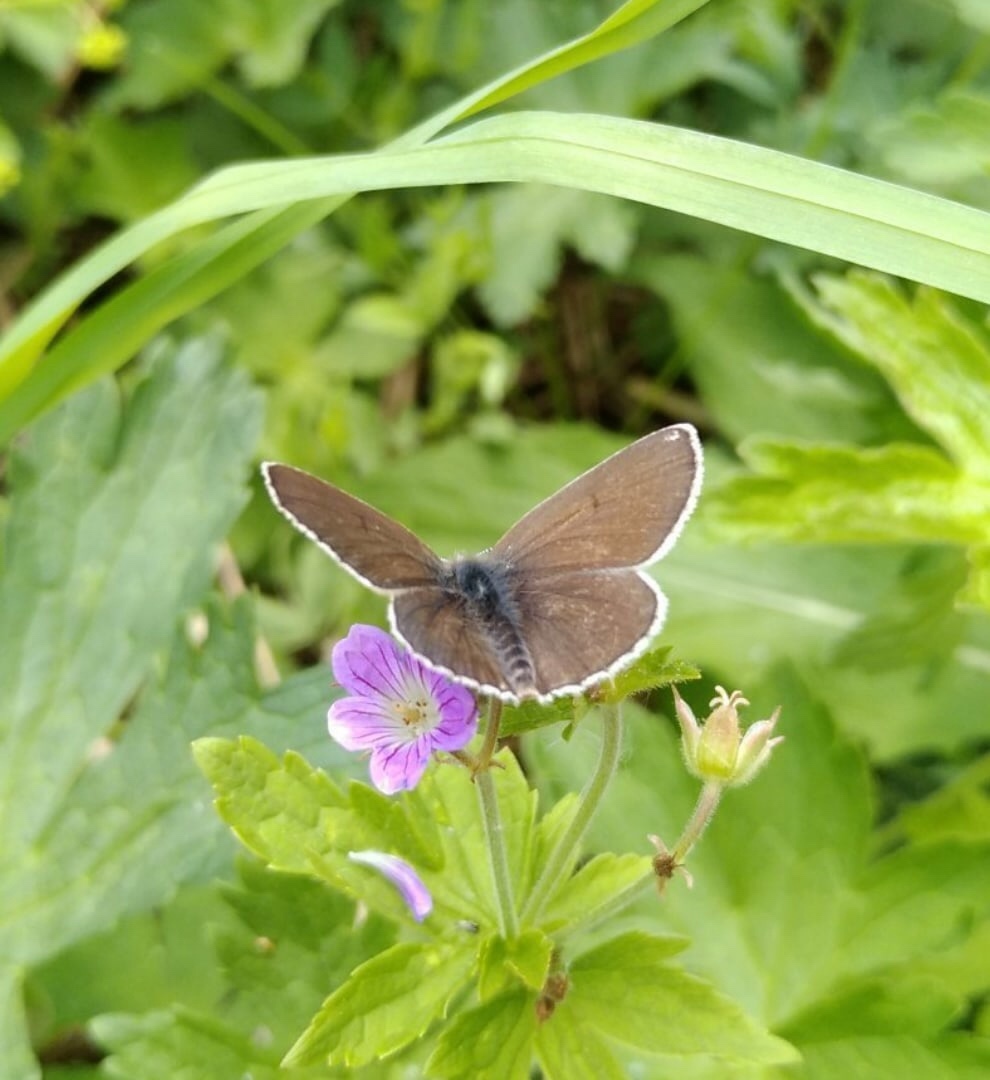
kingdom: Animalia
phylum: Arthropoda
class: Insecta
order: Lepidoptera
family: Lycaenidae
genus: Eumedonia
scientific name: Eumedonia eumedon
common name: Geranium argus
